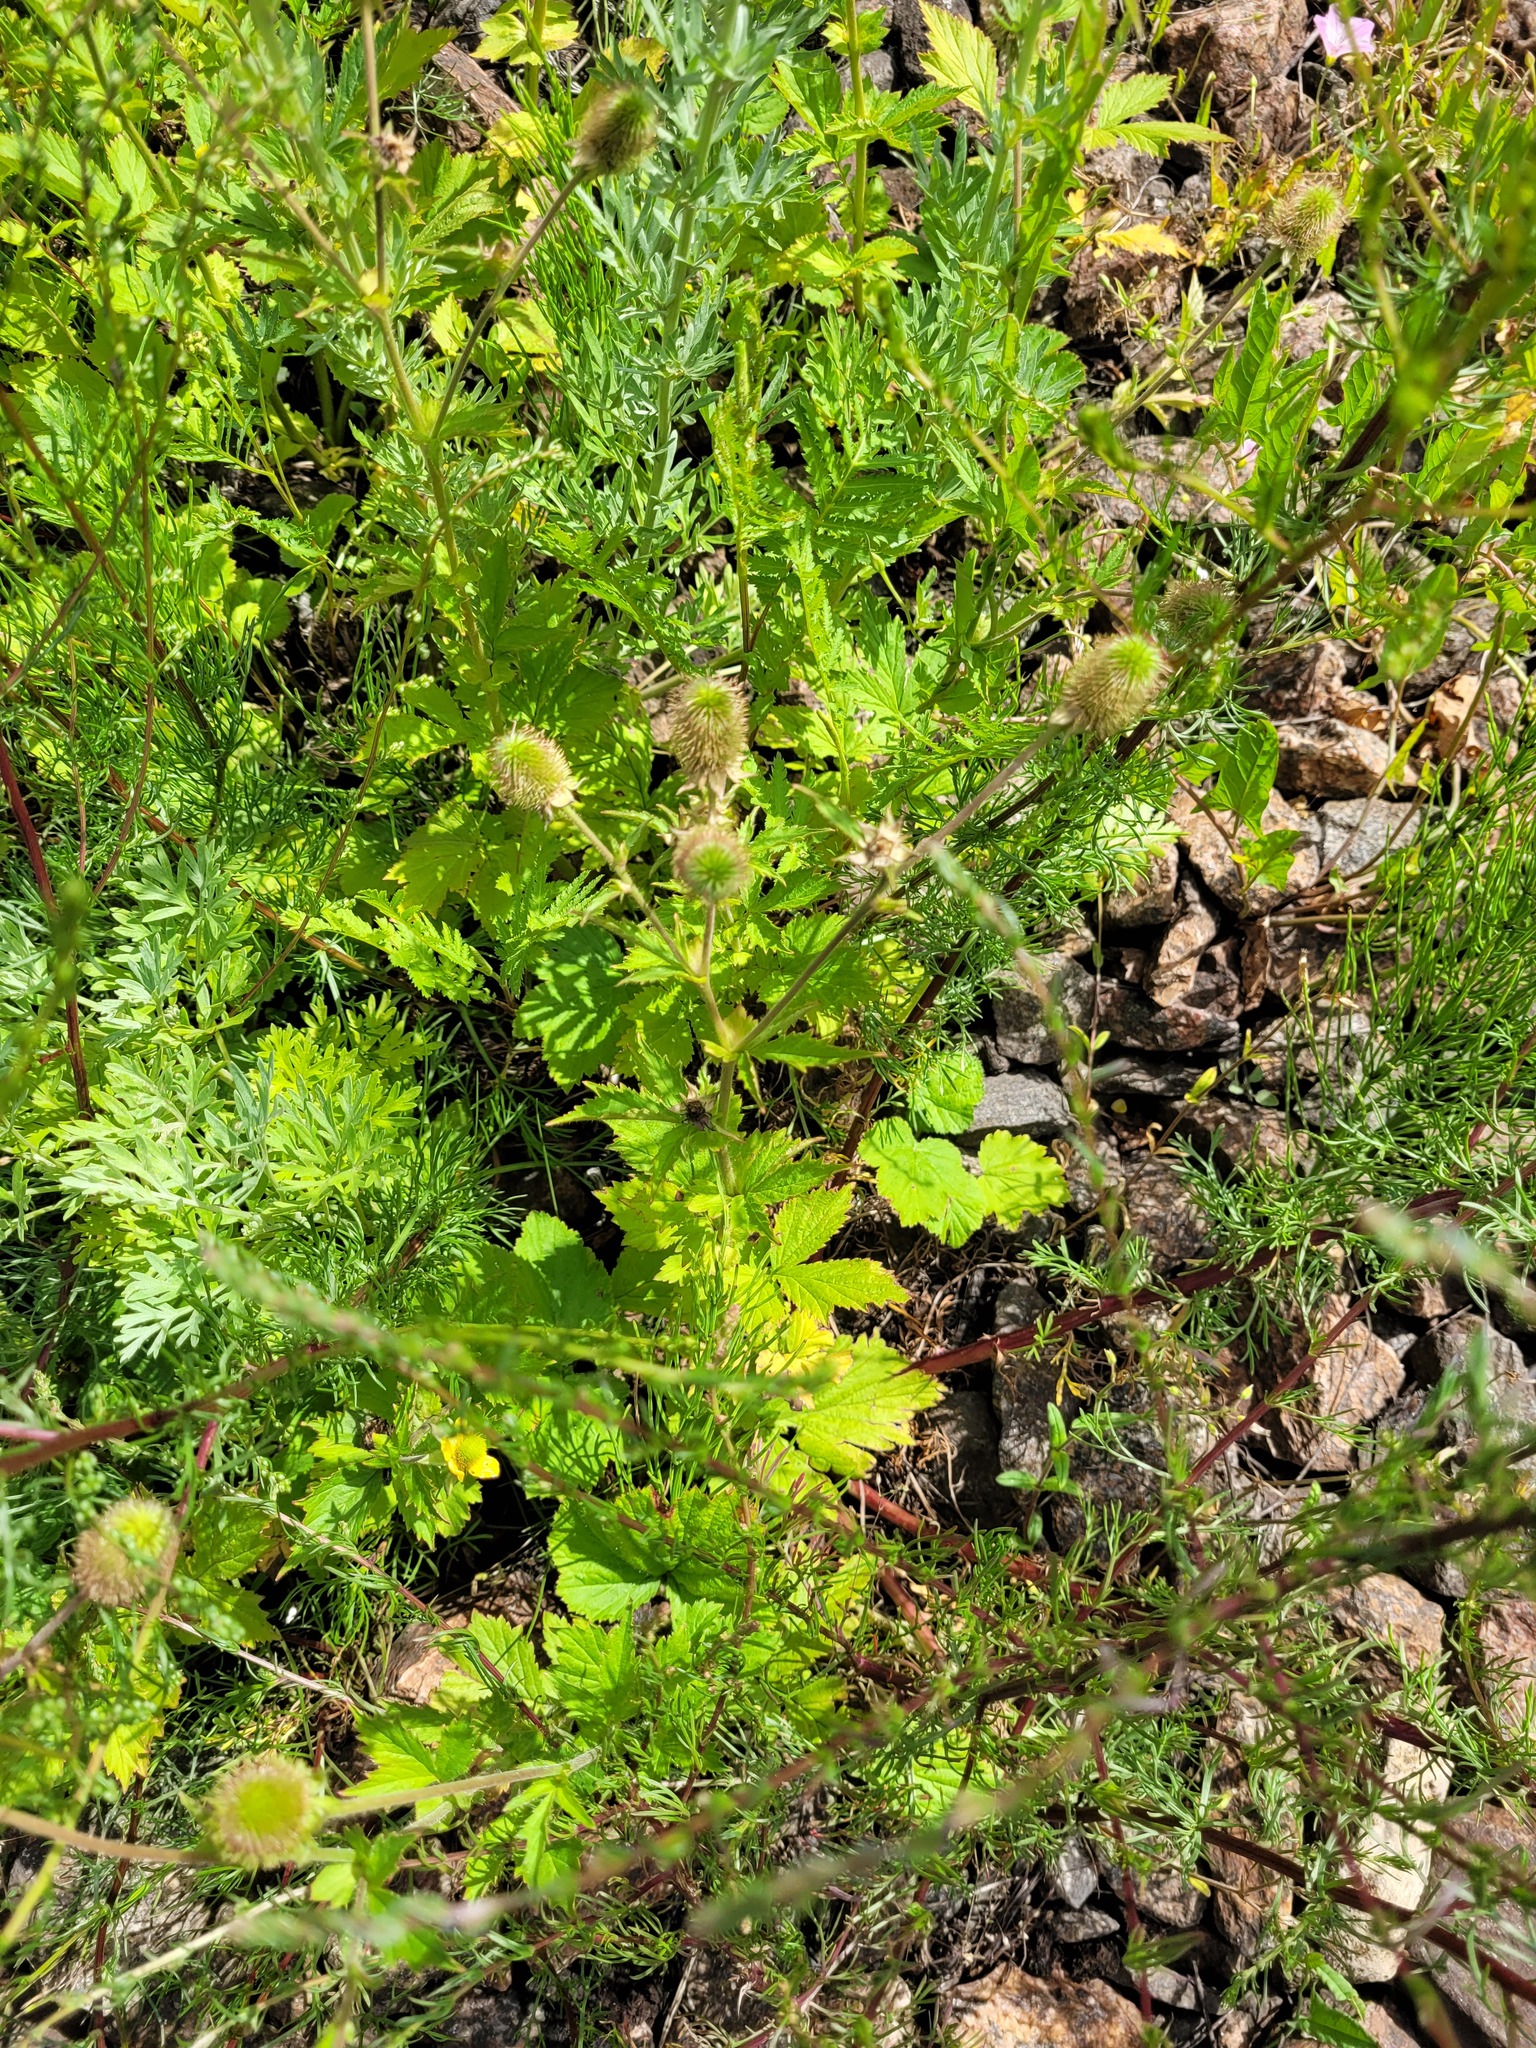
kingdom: Plantae
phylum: Tracheophyta
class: Magnoliopsida
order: Rosales
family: Rosaceae
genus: Geum
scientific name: Geum aleppicum
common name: Yellow avens
